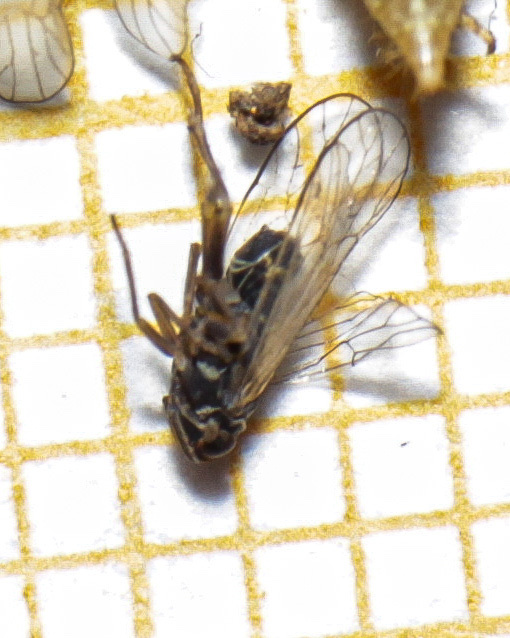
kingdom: Animalia
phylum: Arthropoda
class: Insecta
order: Hemiptera
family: Delphacidae
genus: Javesella
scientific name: Javesella dubia
